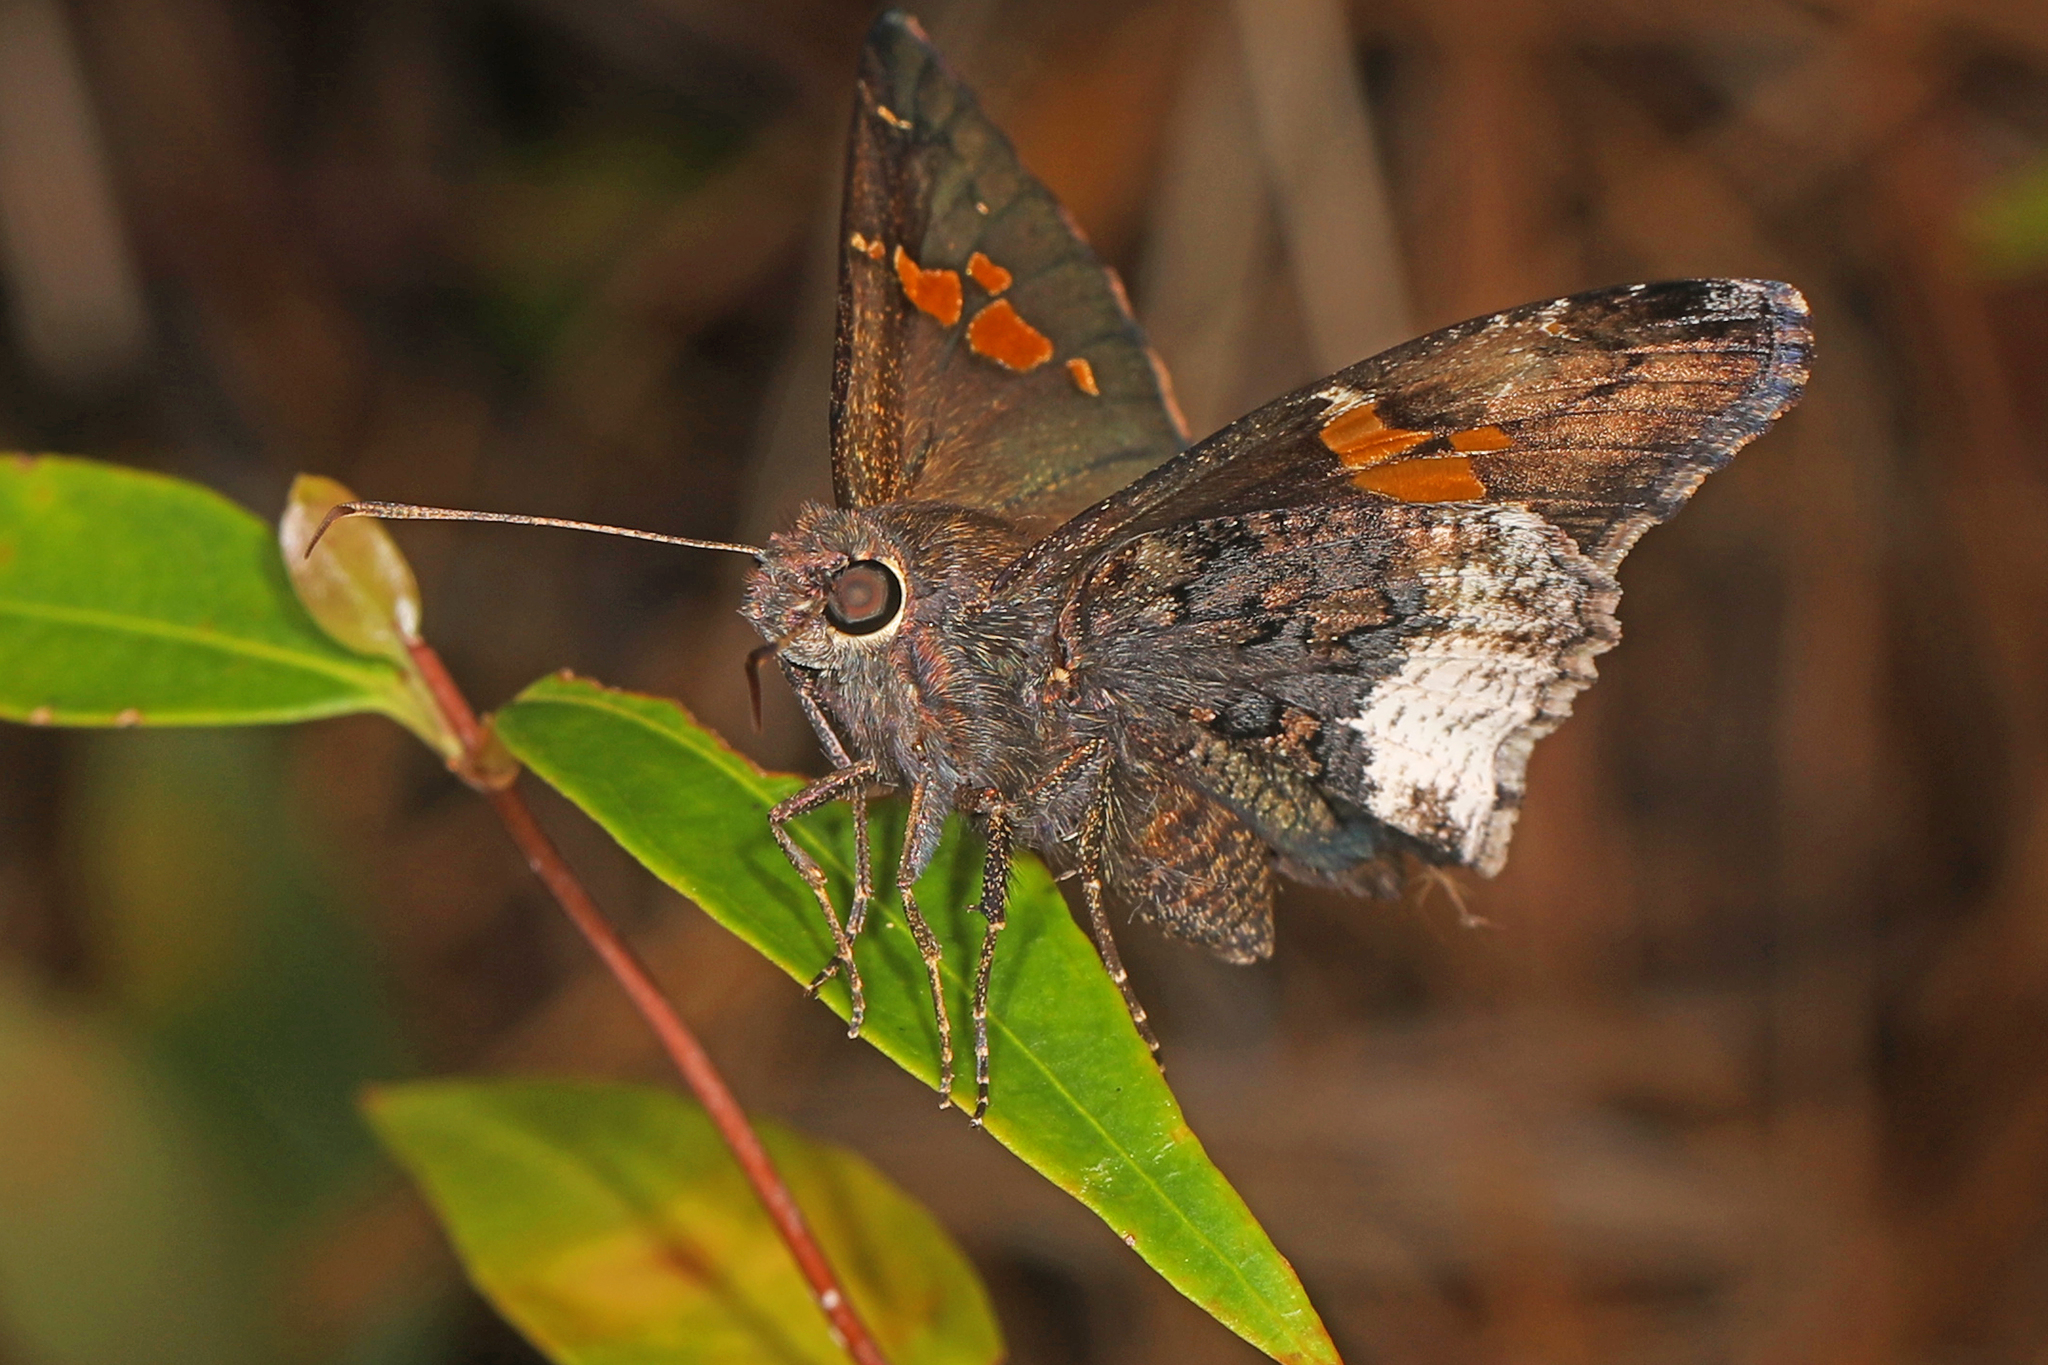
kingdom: Animalia
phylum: Arthropoda
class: Insecta
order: Lepidoptera
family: Hesperiidae
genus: Thorybes
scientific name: Thorybes lyciades
